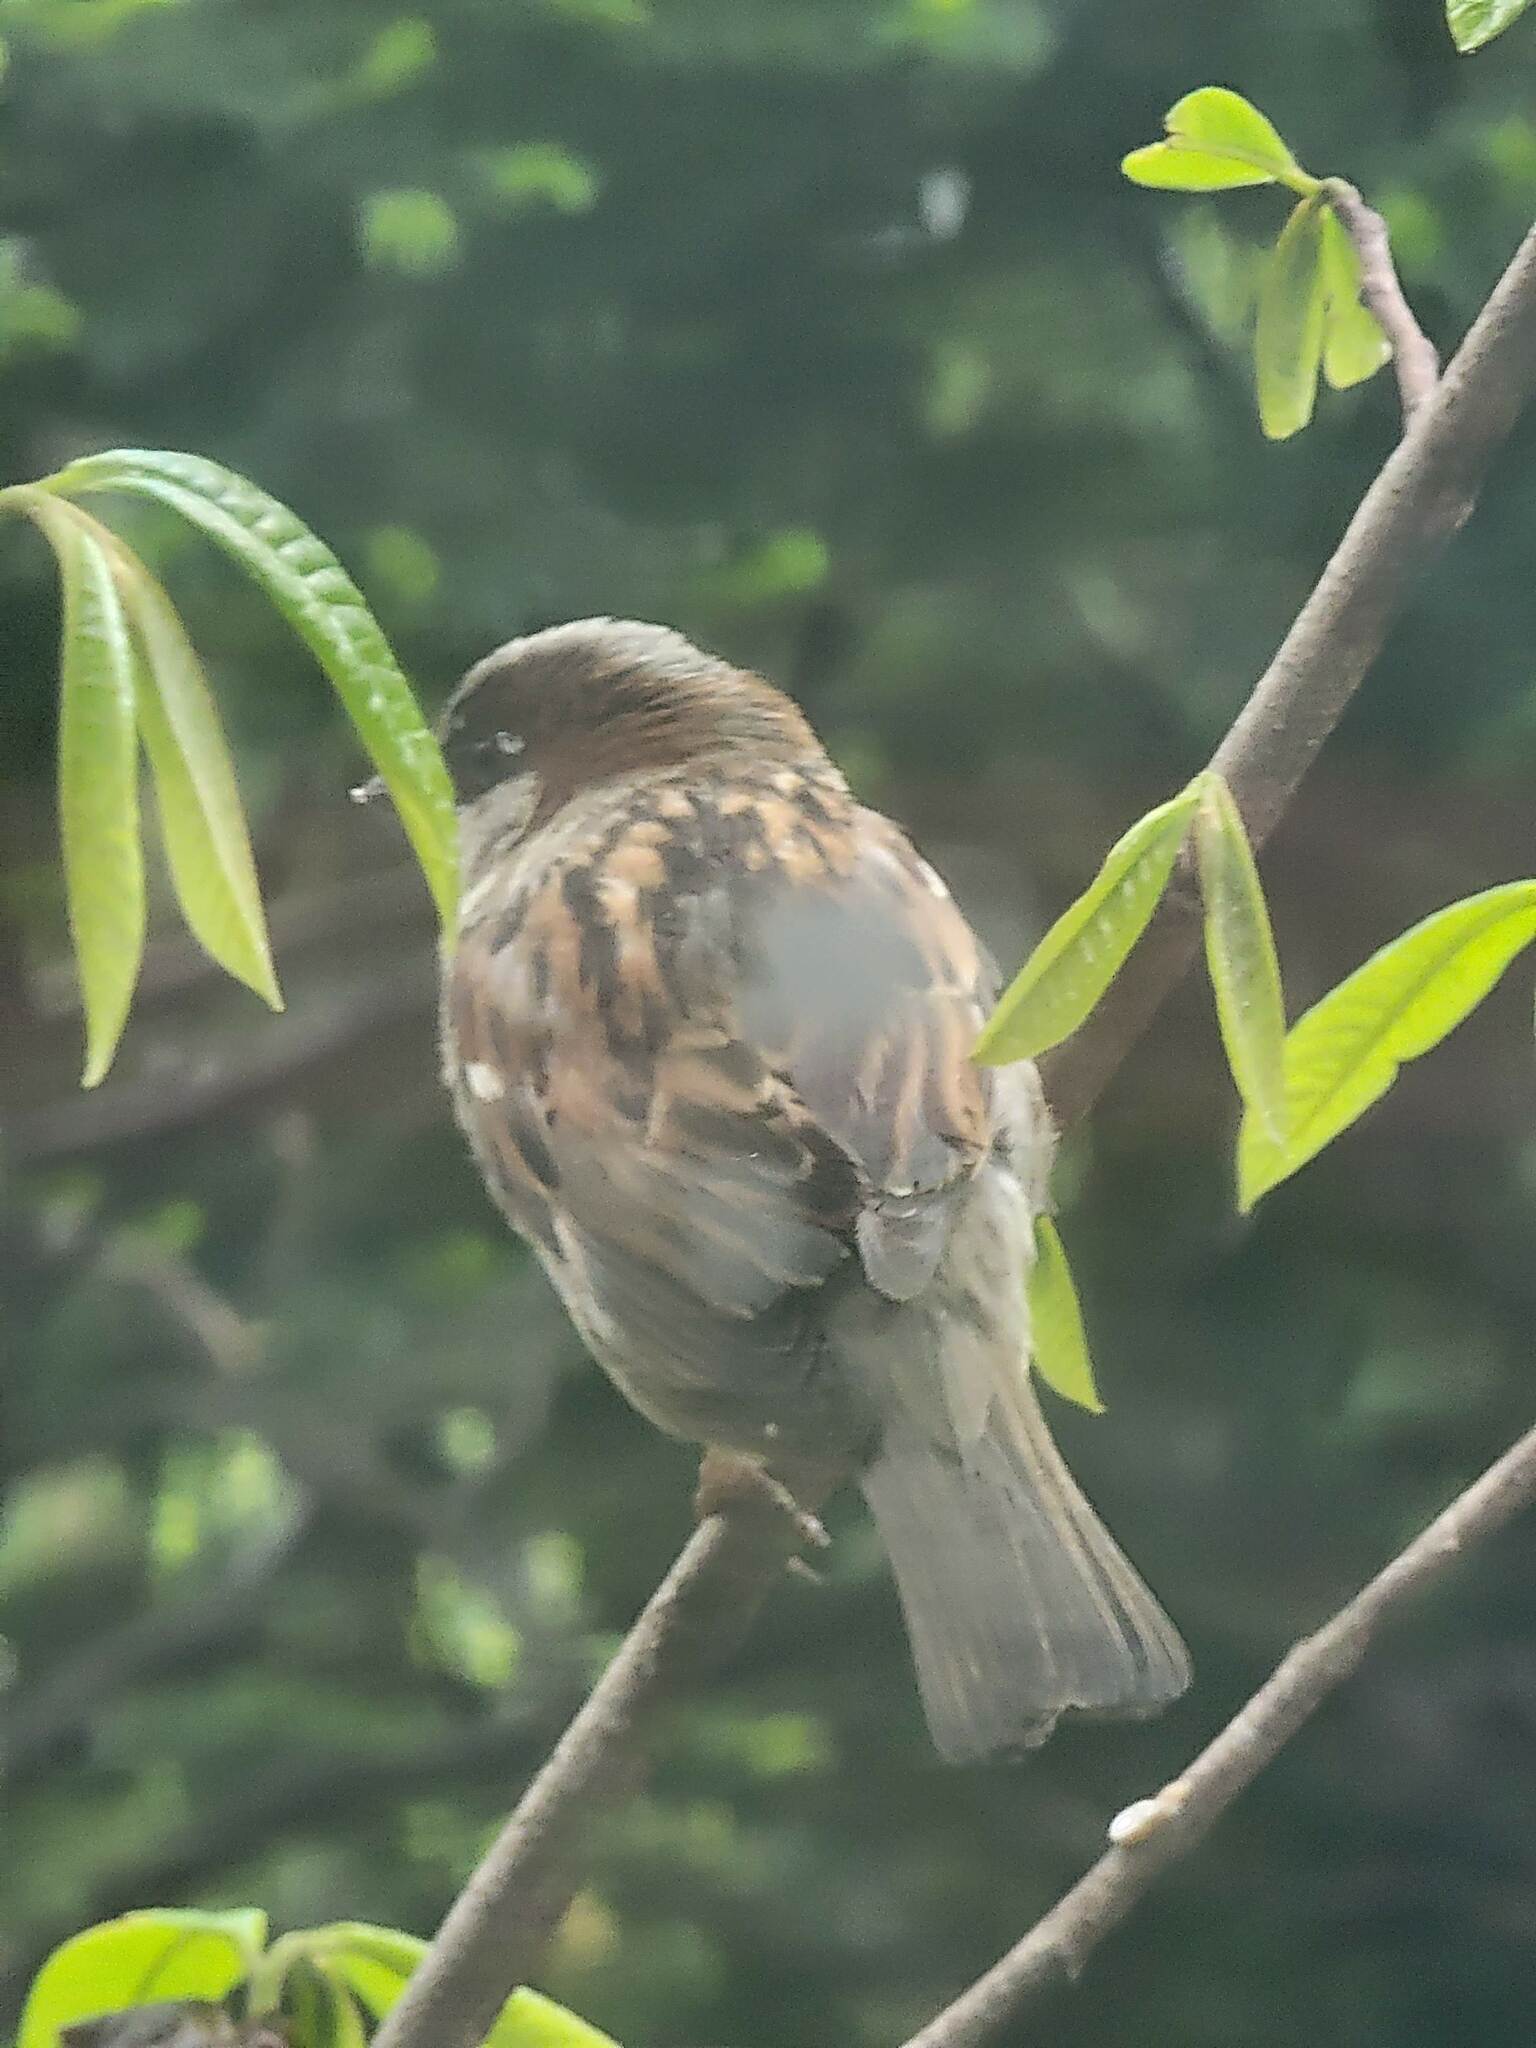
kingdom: Animalia
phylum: Chordata
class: Aves
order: Passeriformes
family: Passeridae
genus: Passer
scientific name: Passer domesticus
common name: House sparrow
